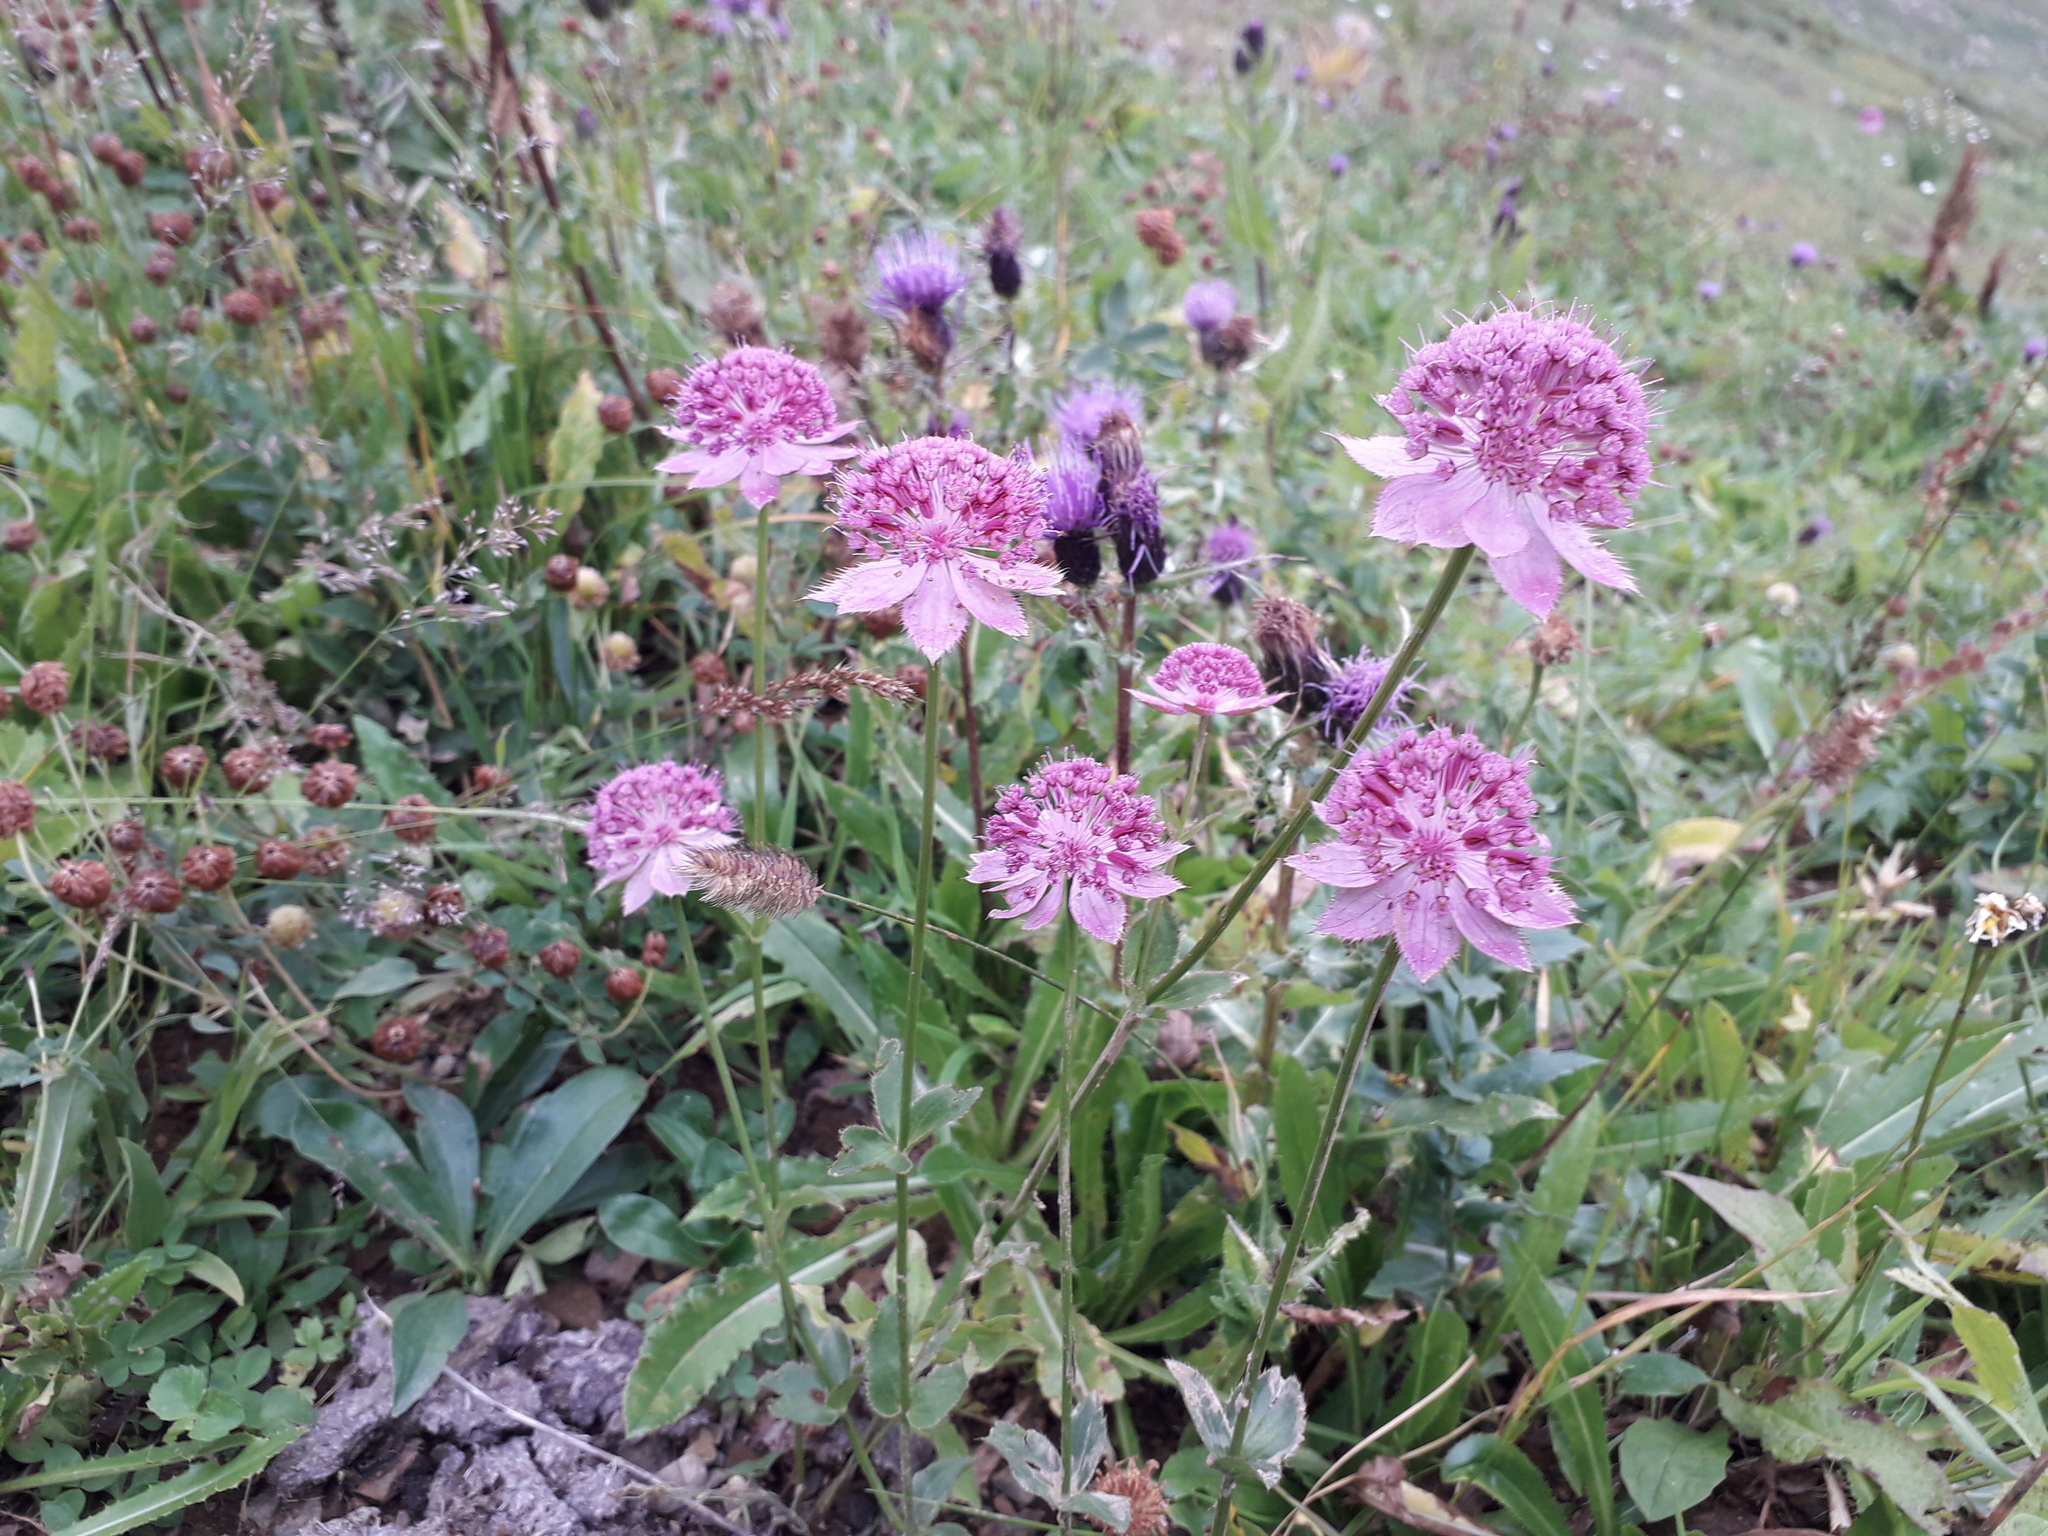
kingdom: Plantae
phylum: Tracheophyta
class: Magnoliopsida
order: Apiales
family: Apiaceae
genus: Astrantia
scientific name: Astrantia maxima
